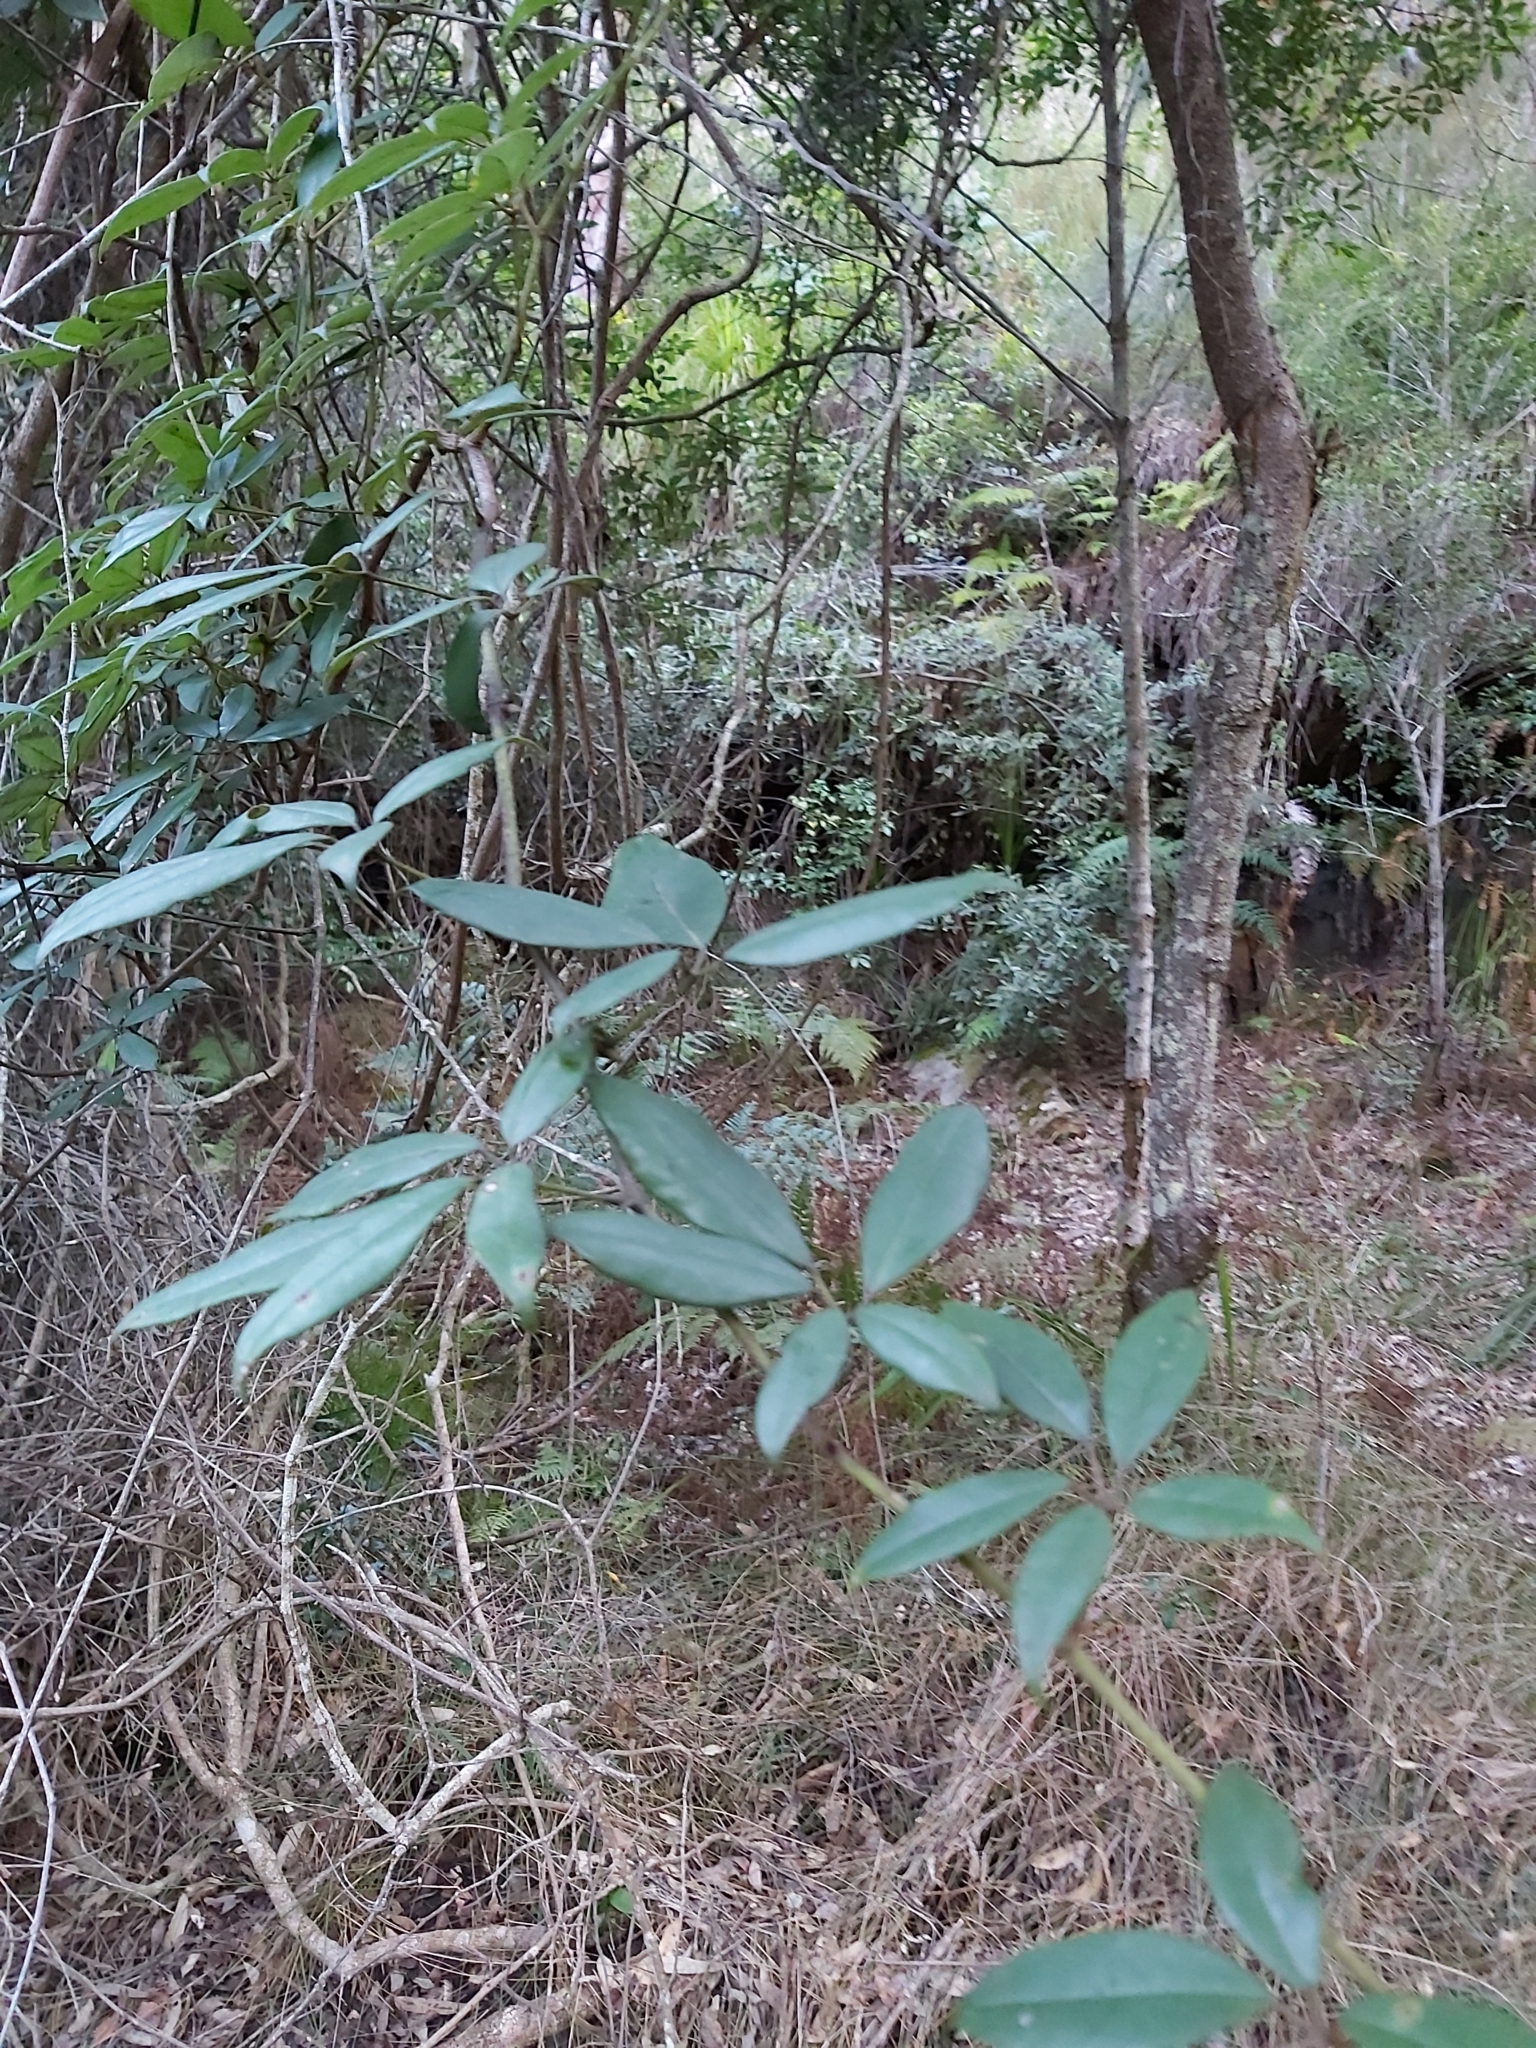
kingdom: Plantae
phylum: Tracheophyta
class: Magnoliopsida
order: Vitales
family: Vitaceae
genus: Nothocissus
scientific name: Nothocissus hypoglauca
